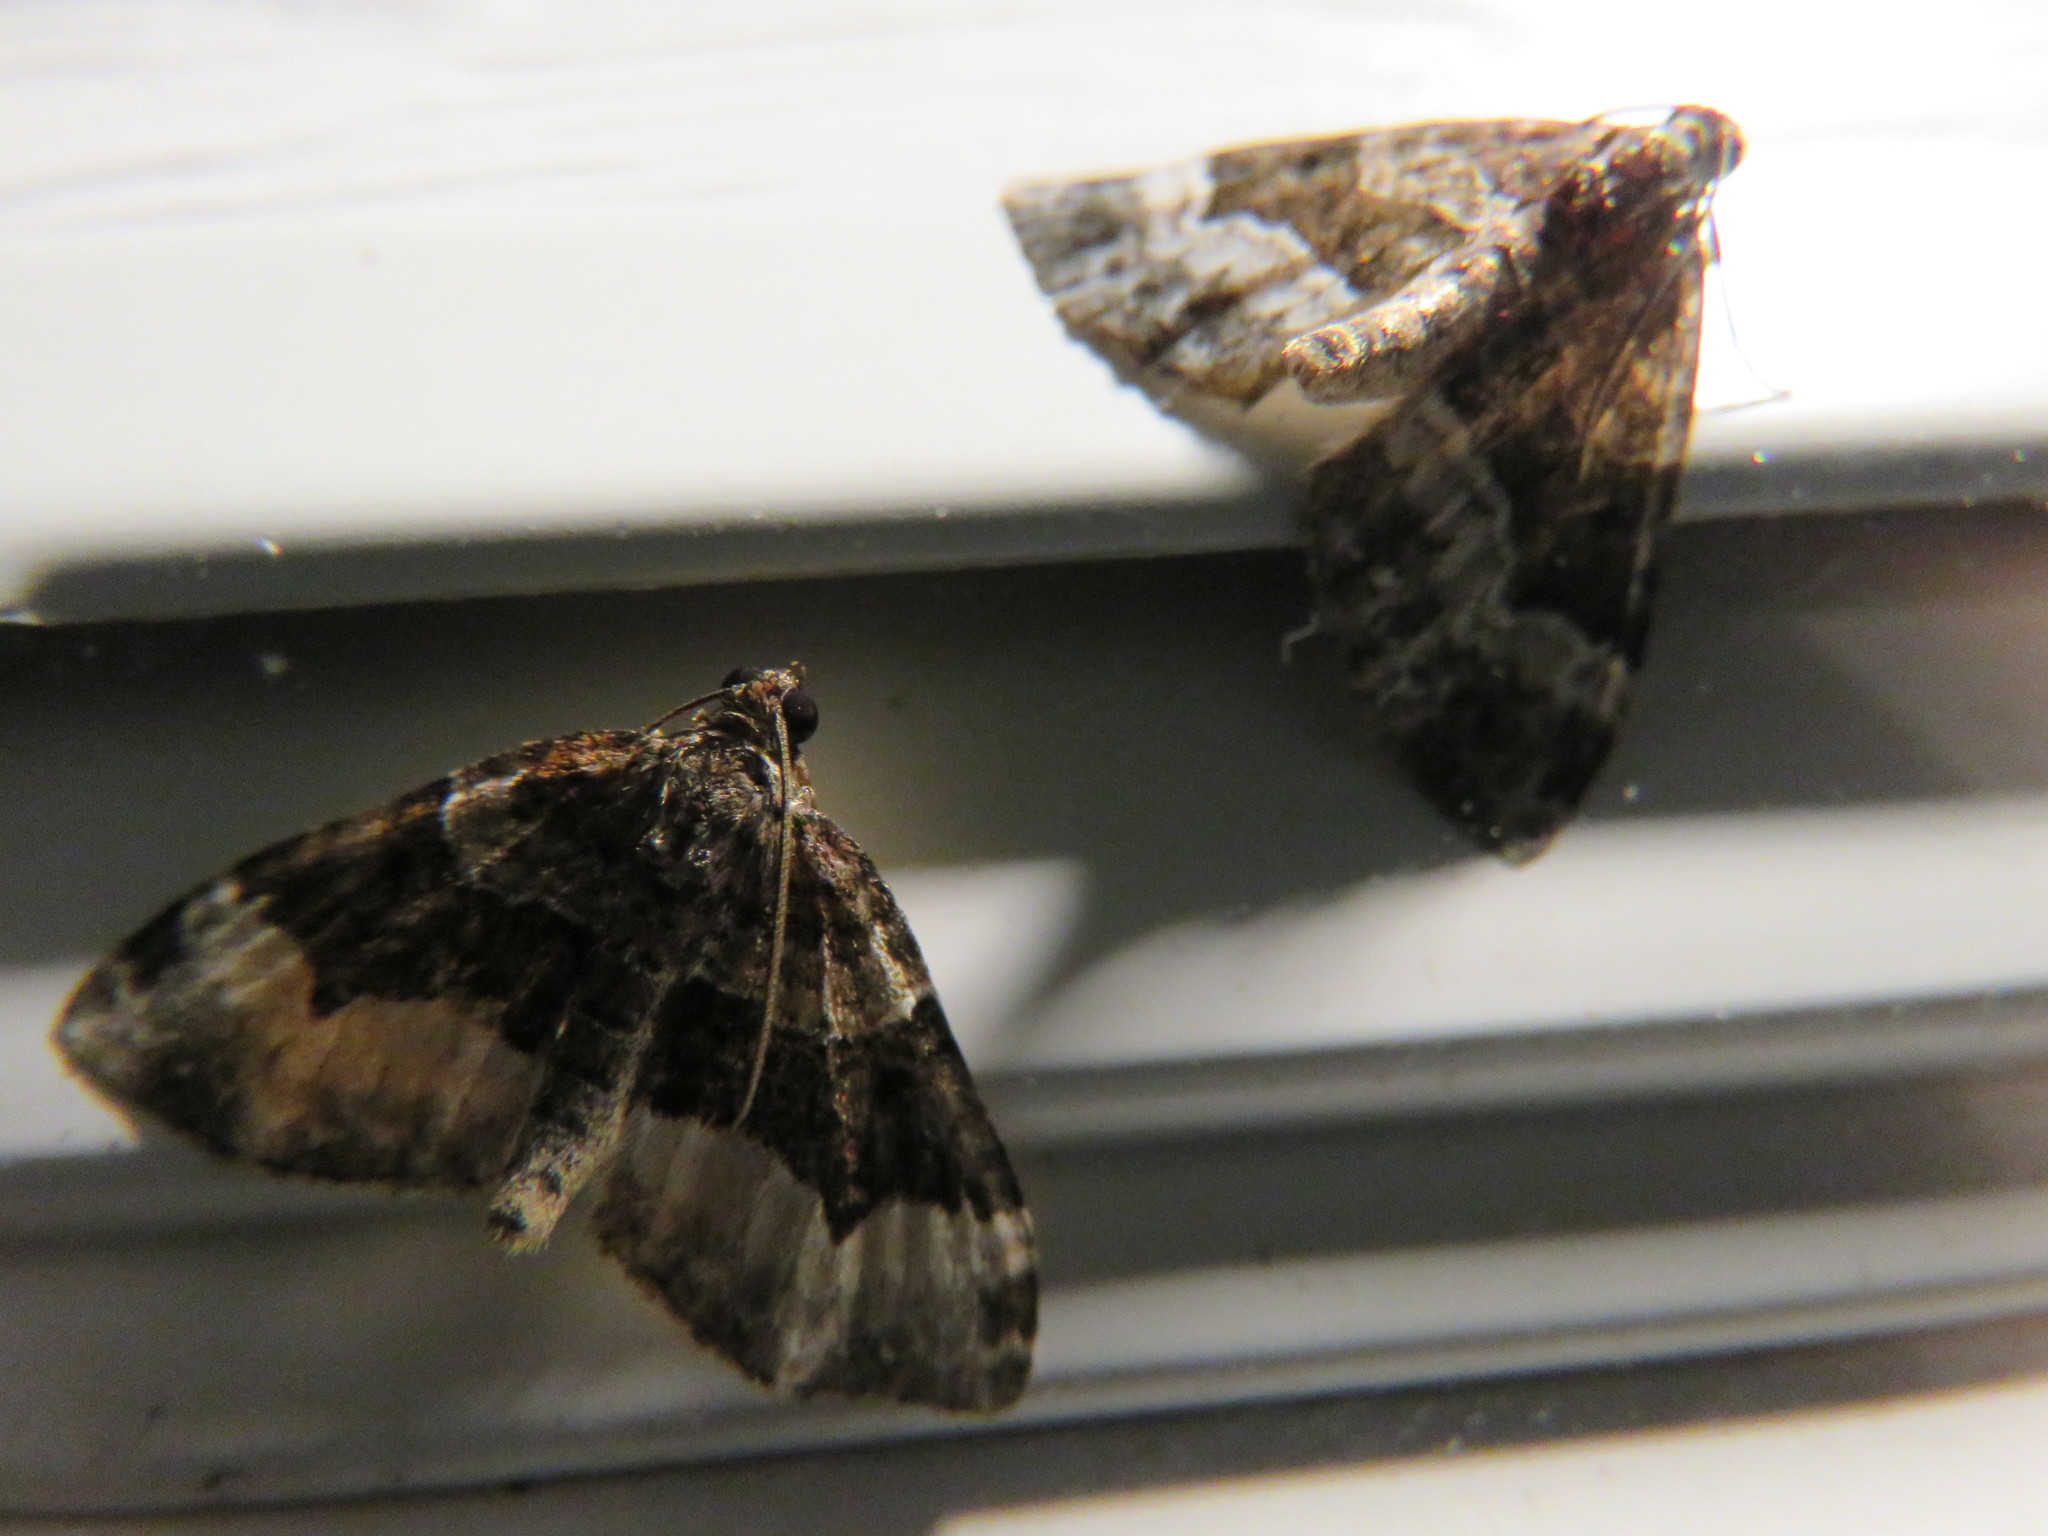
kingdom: Animalia
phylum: Arthropoda
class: Insecta
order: Lepidoptera
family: Geometridae
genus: Euphyia
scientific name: Euphyia intermediata
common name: Sharp-angled carpet
